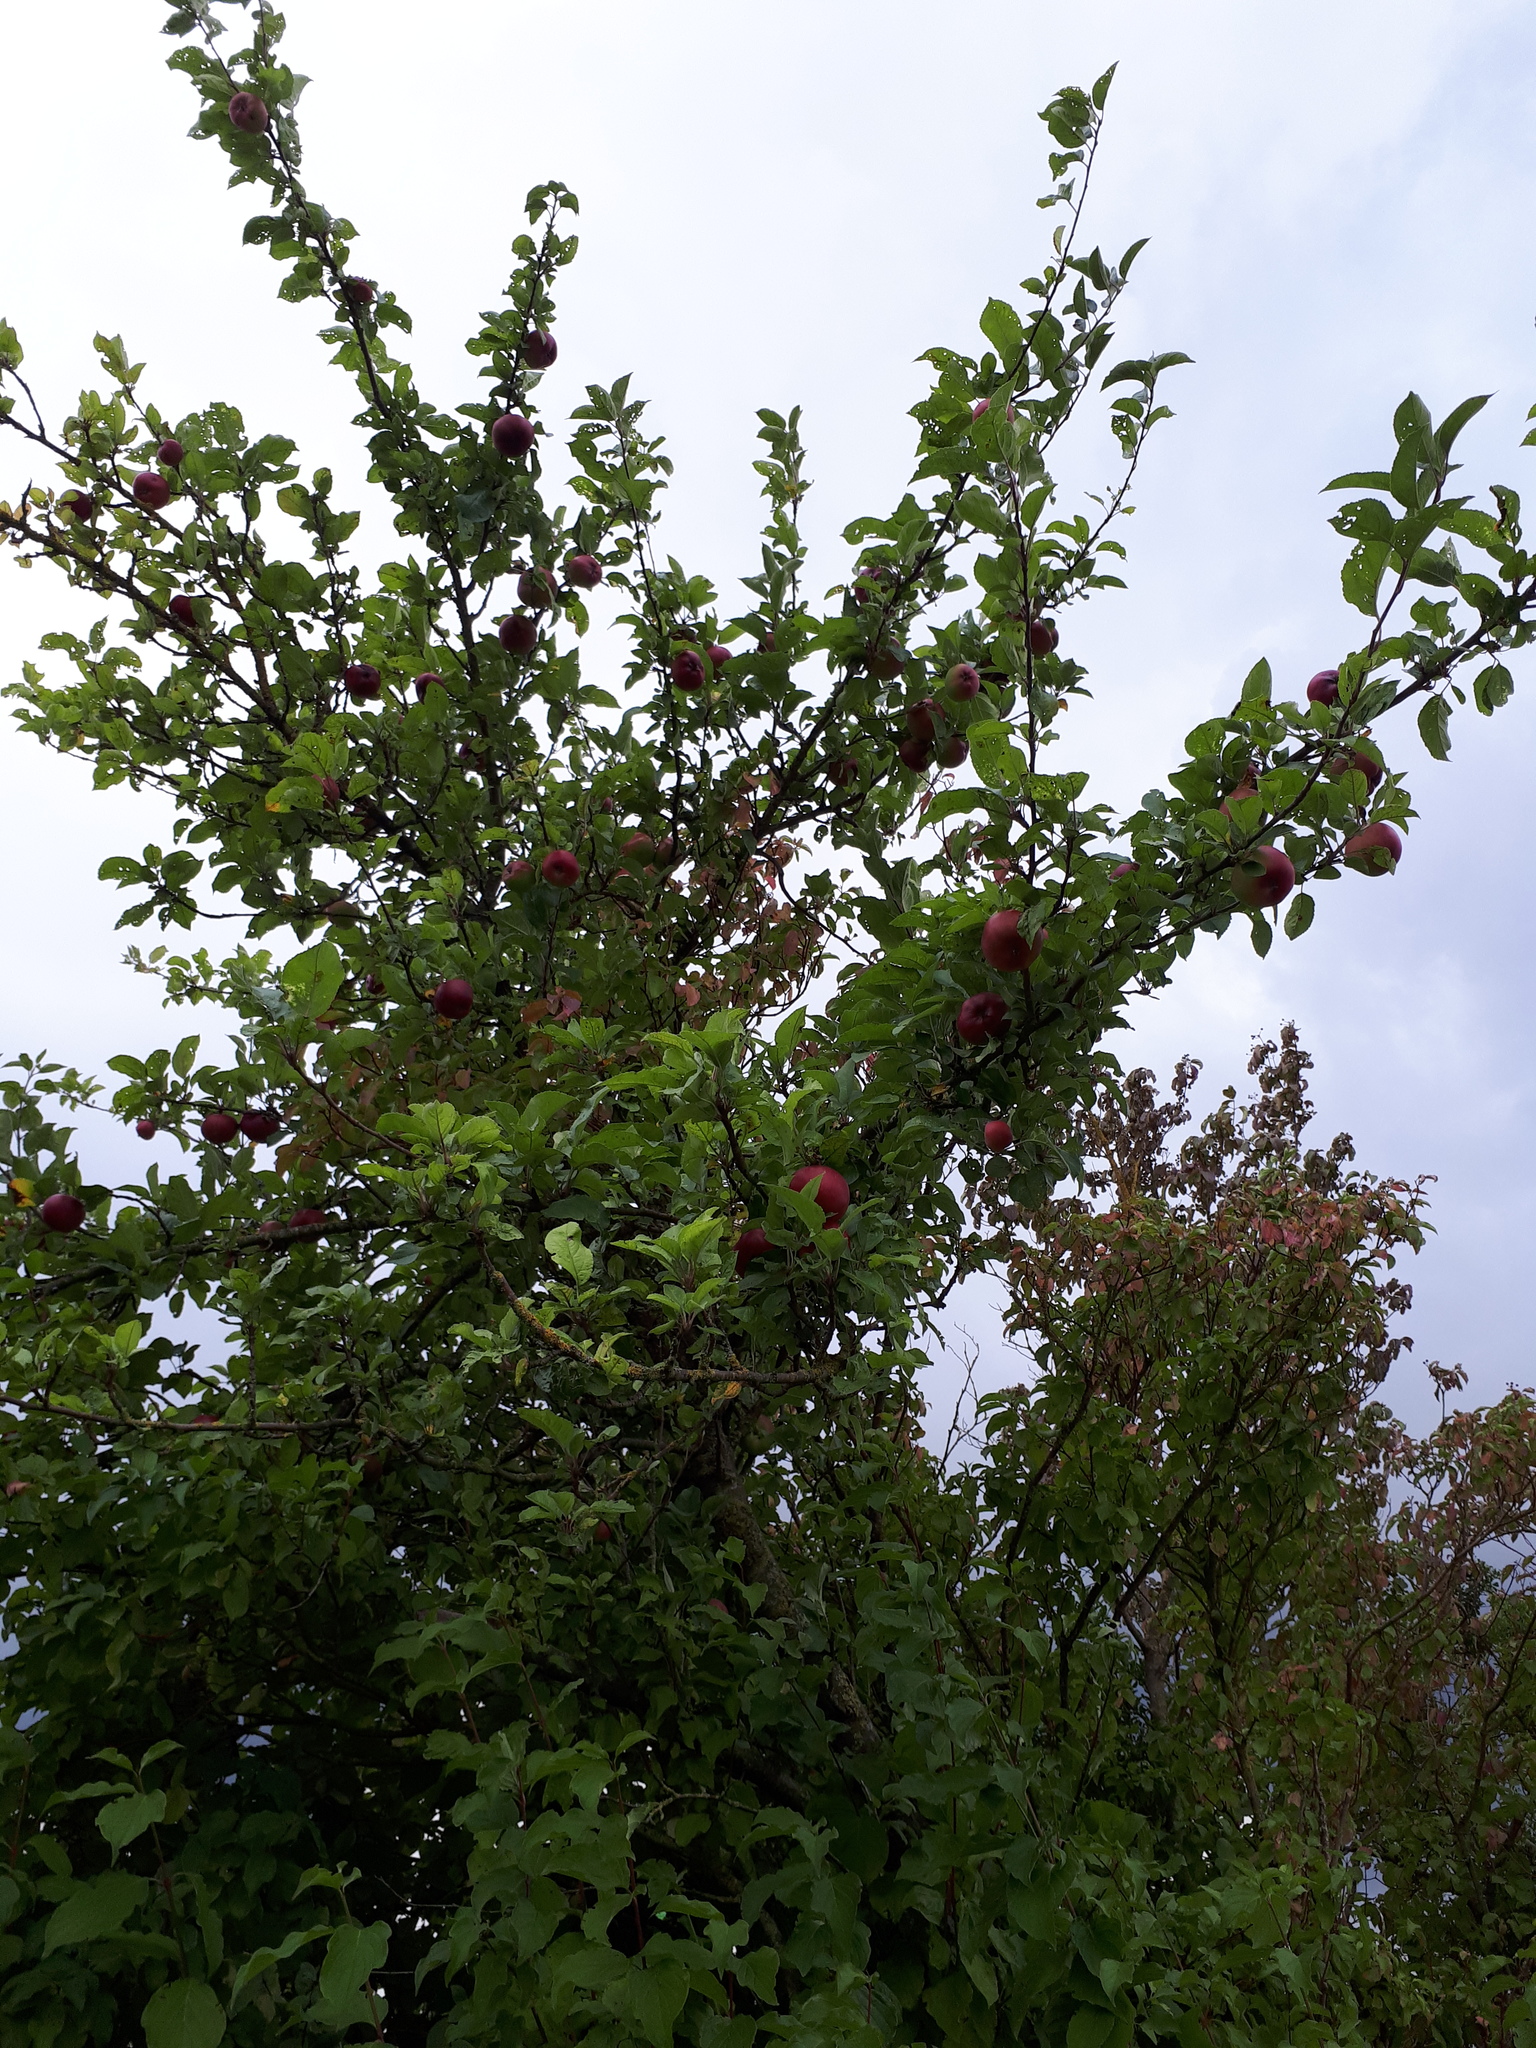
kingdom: Plantae
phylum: Tracheophyta
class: Magnoliopsida
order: Rosales
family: Rosaceae
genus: Malus
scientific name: Malus domestica
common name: Apple
